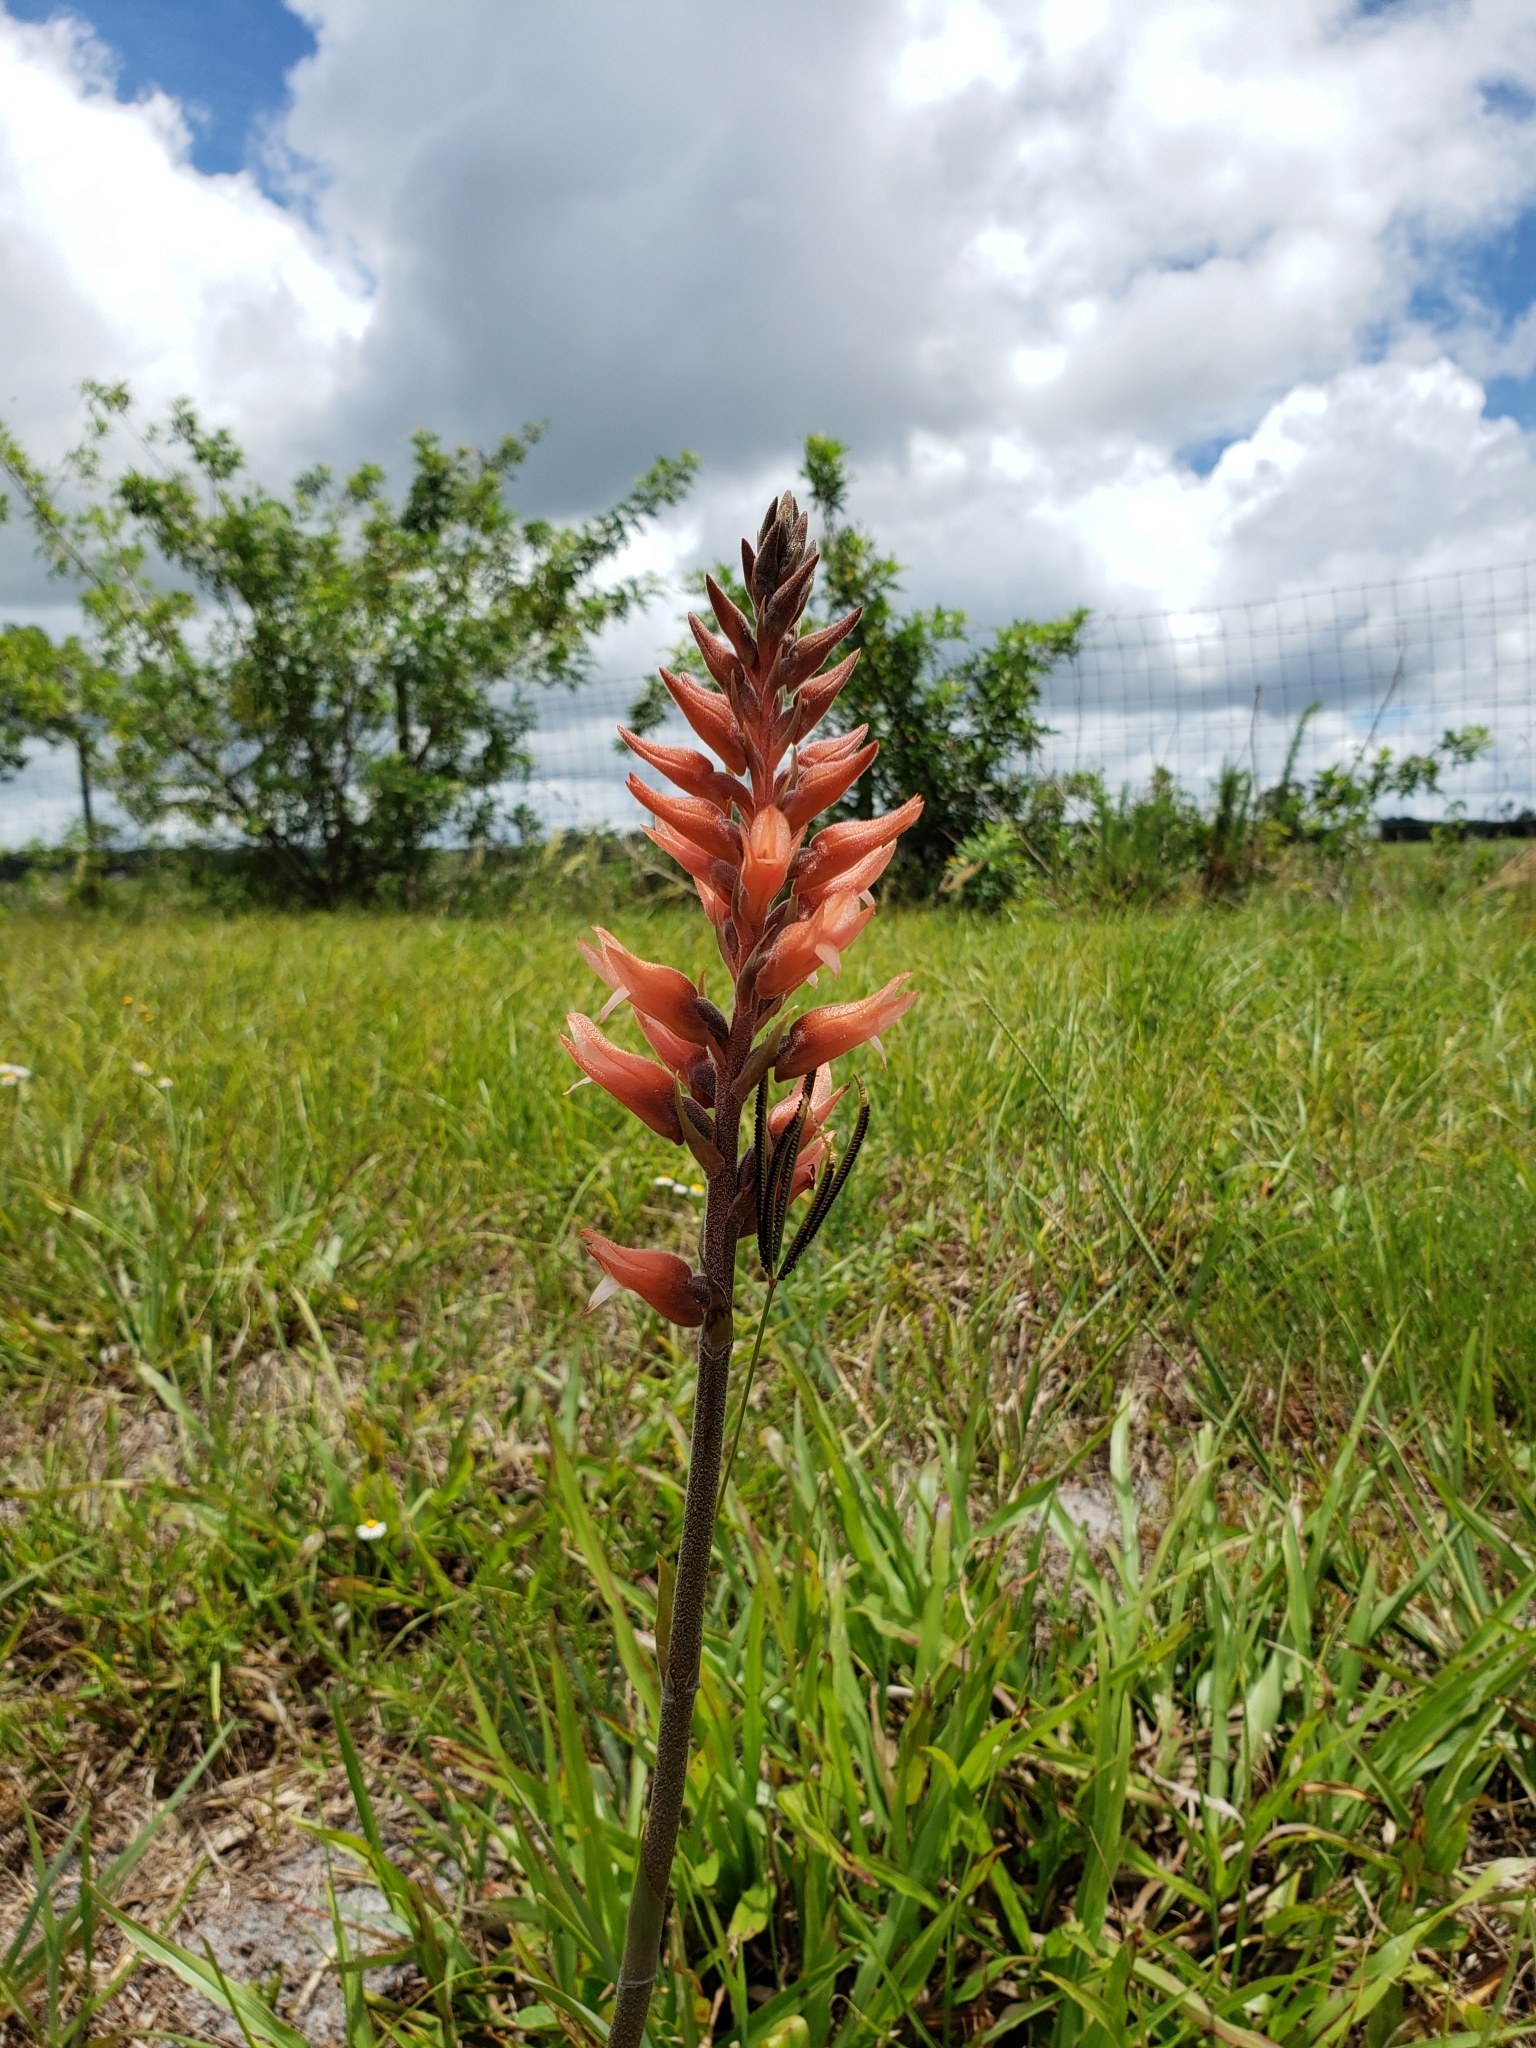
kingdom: Plantae
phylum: Tracheophyta
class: Liliopsida
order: Asparagales
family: Orchidaceae
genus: Sacoila
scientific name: Sacoila lanceolata
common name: Leafless beaked ladiestresses
